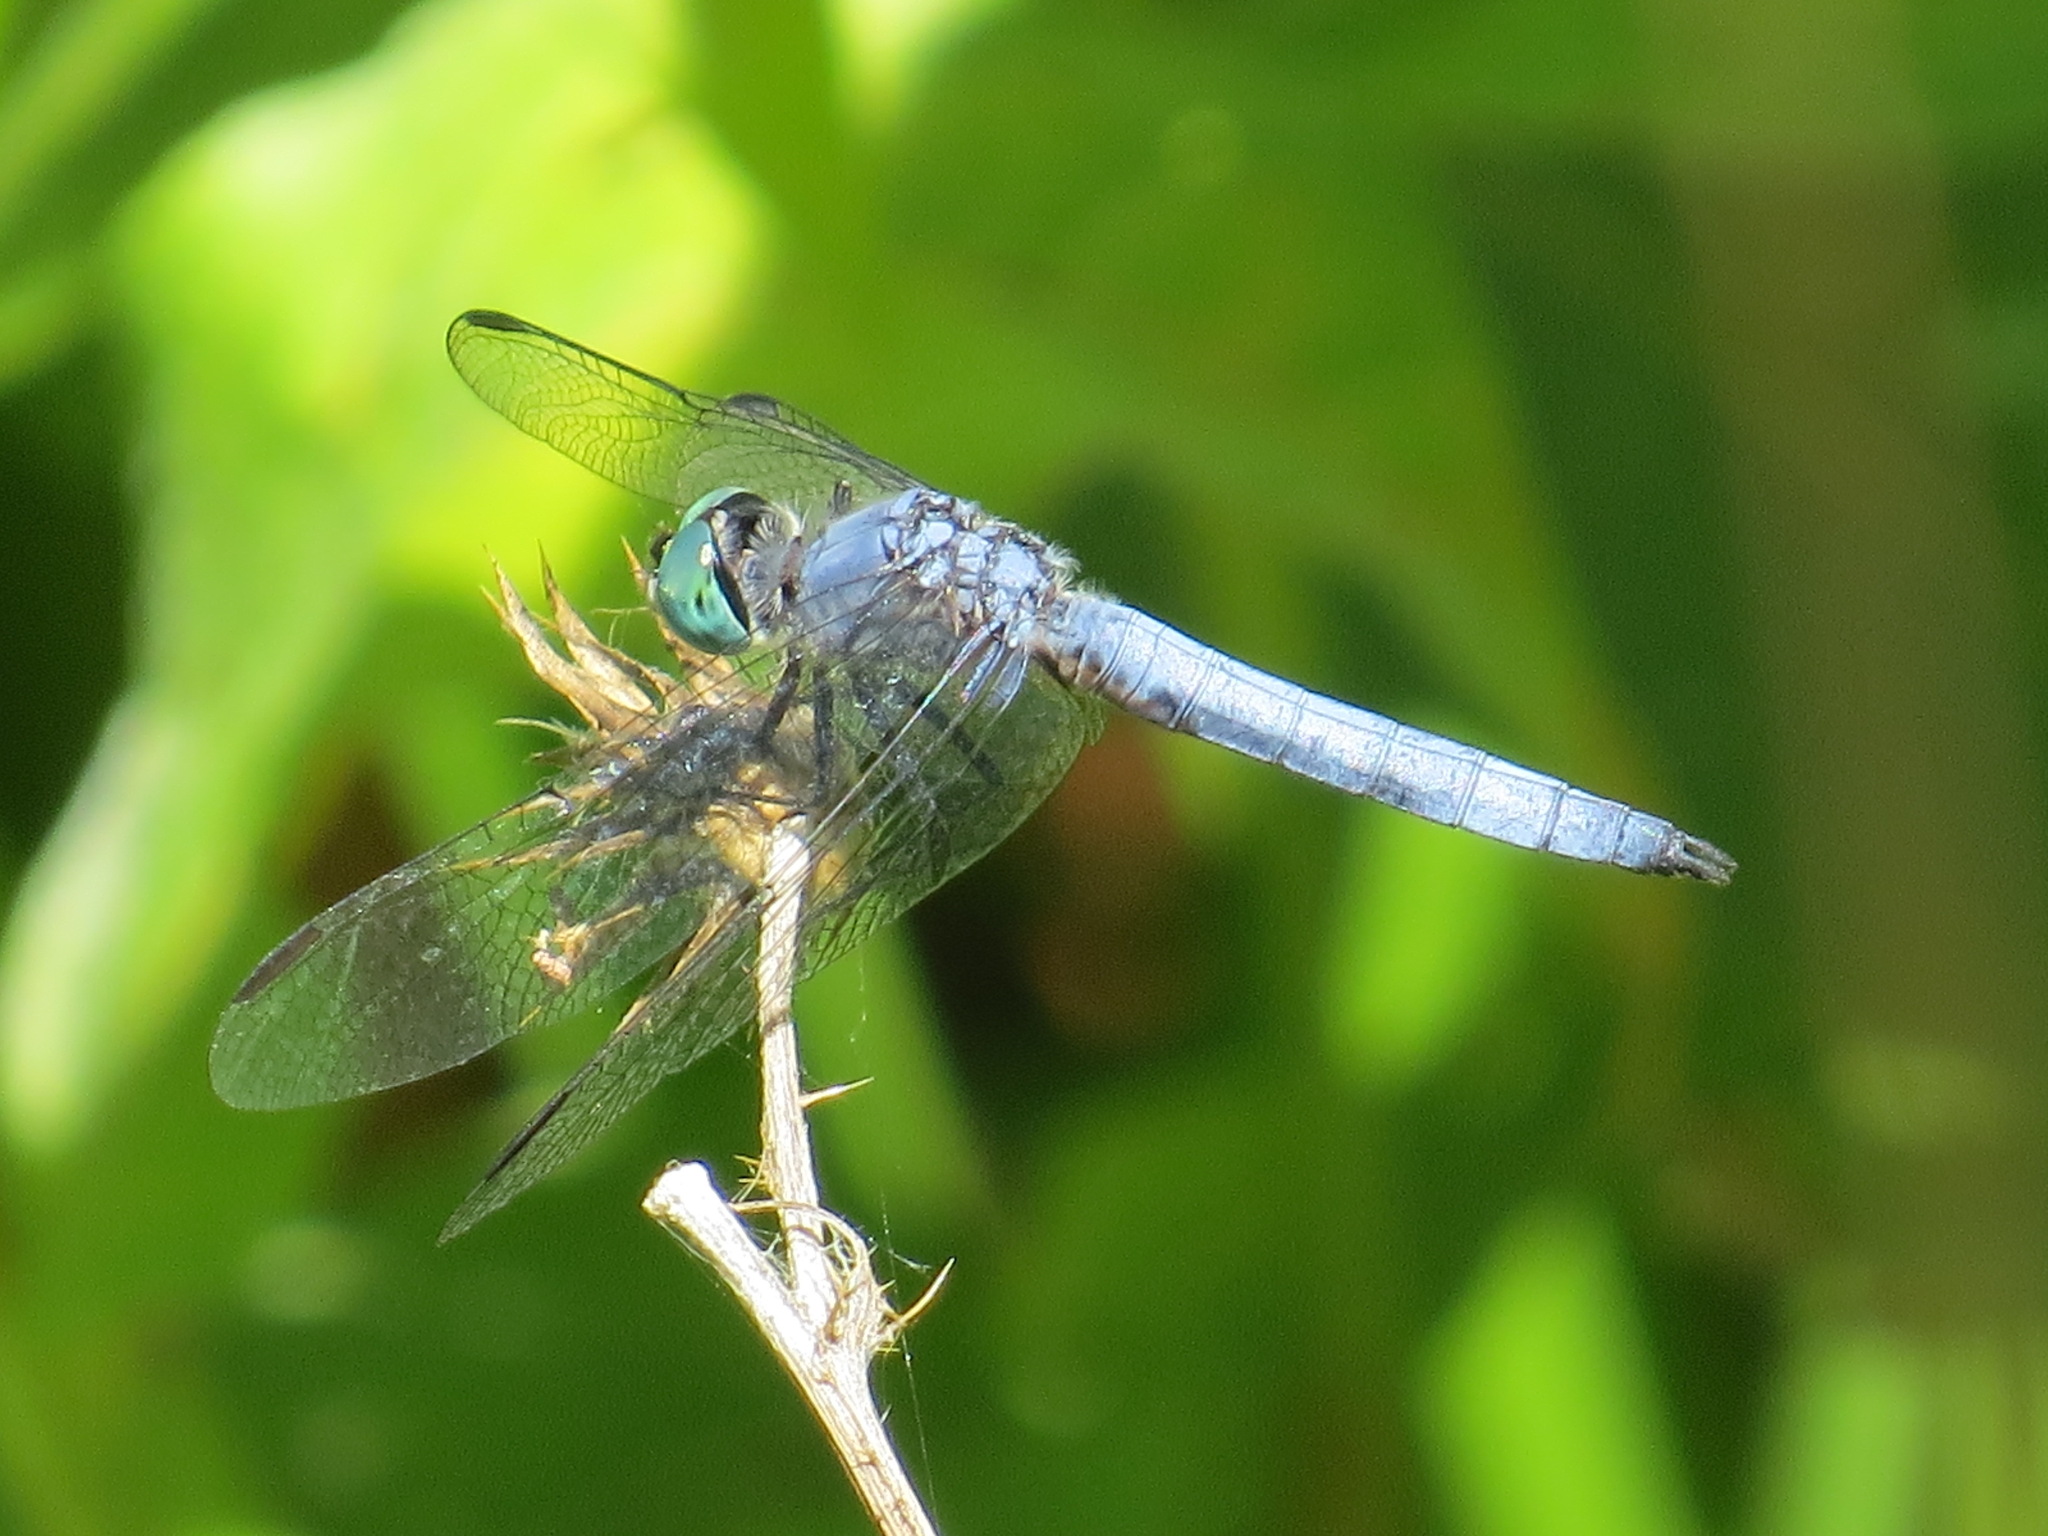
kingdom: Animalia
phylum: Arthropoda
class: Insecta
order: Odonata
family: Libellulidae
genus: Pachydiplax
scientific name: Pachydiplax longipennis
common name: Blue dasher
